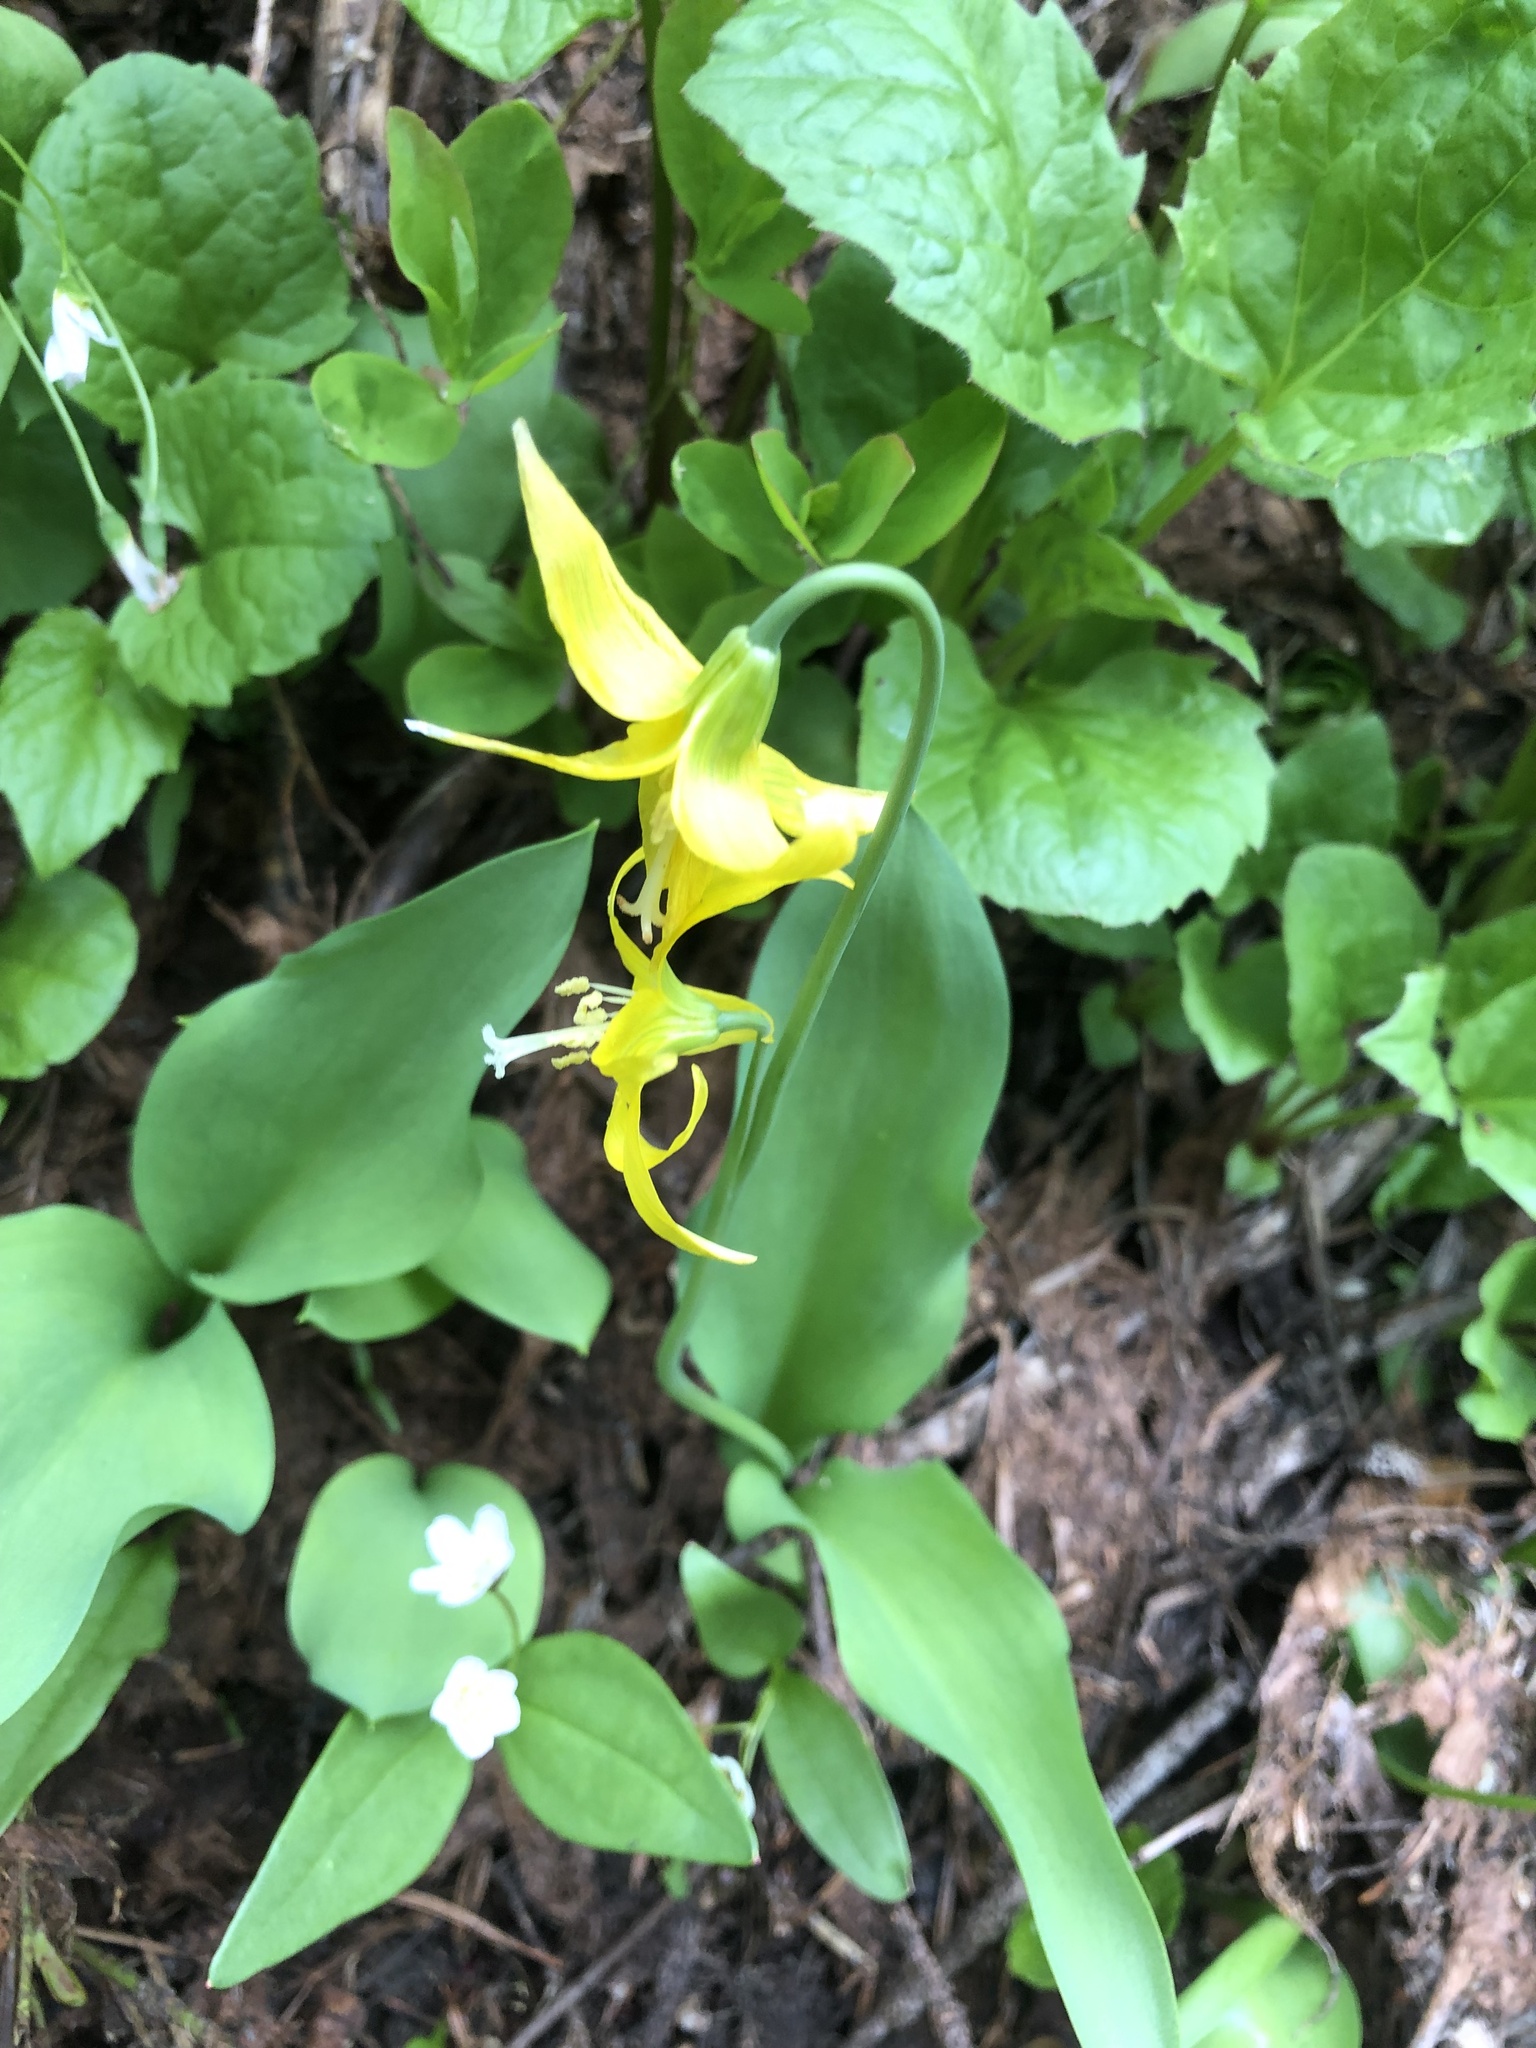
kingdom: Plantae
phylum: Tracheophyta
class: Liliopsida
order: Liliales
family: Liliaceae
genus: Erythronium
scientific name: Erythronium grandiflorum
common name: Avalanche-lily
